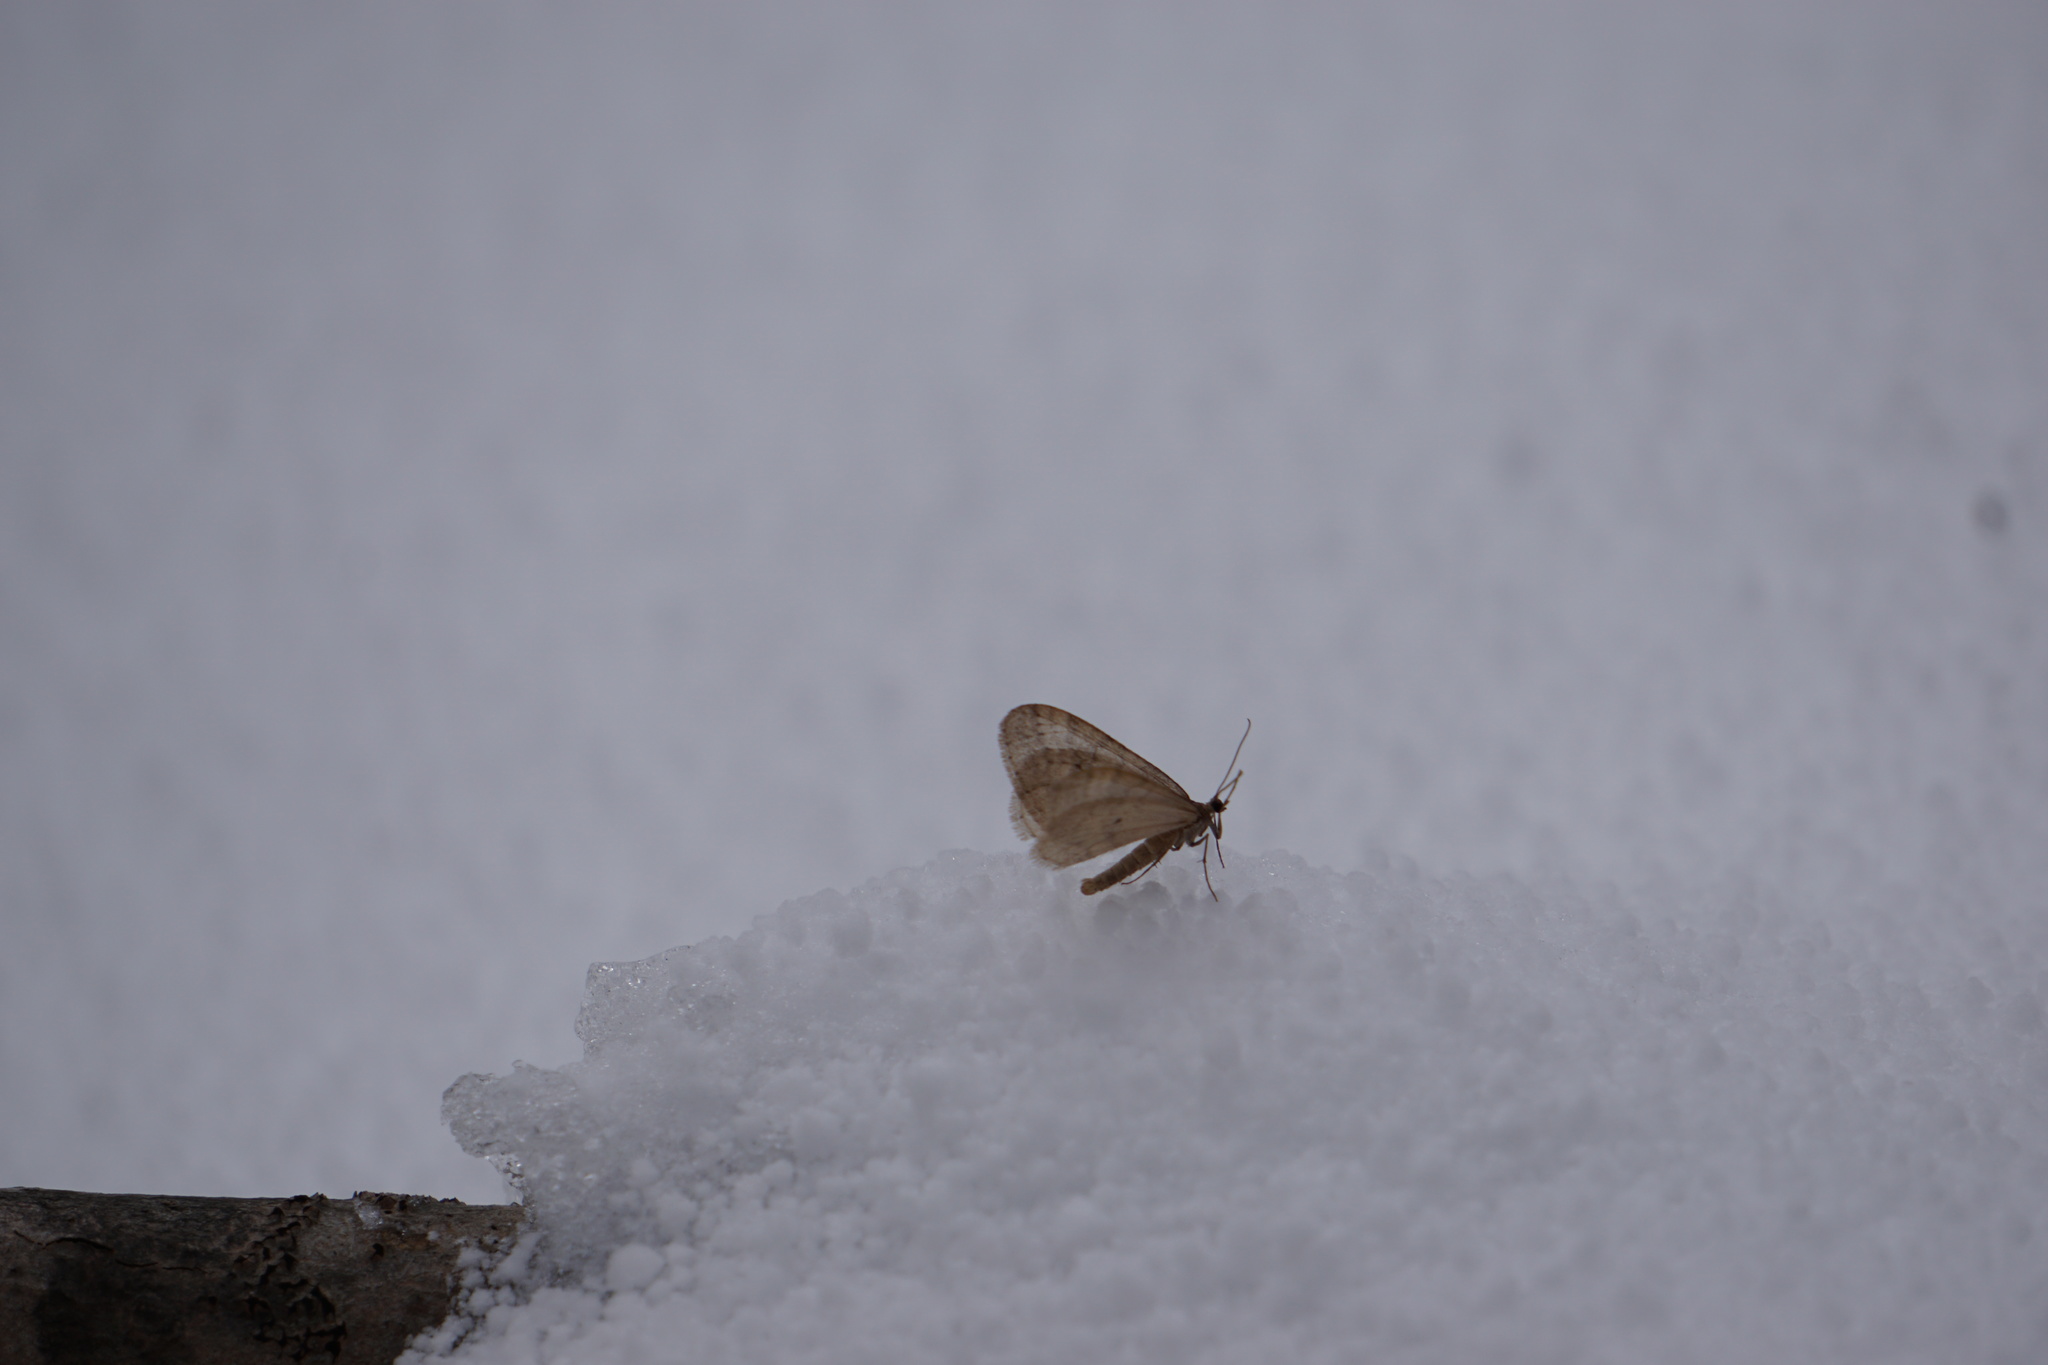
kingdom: Animalia
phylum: Arthropoda
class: Insecta
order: Lepidoptera
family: Geometridae
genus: Operophtera
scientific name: Operophtera bruceata
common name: Bruce spanworm
